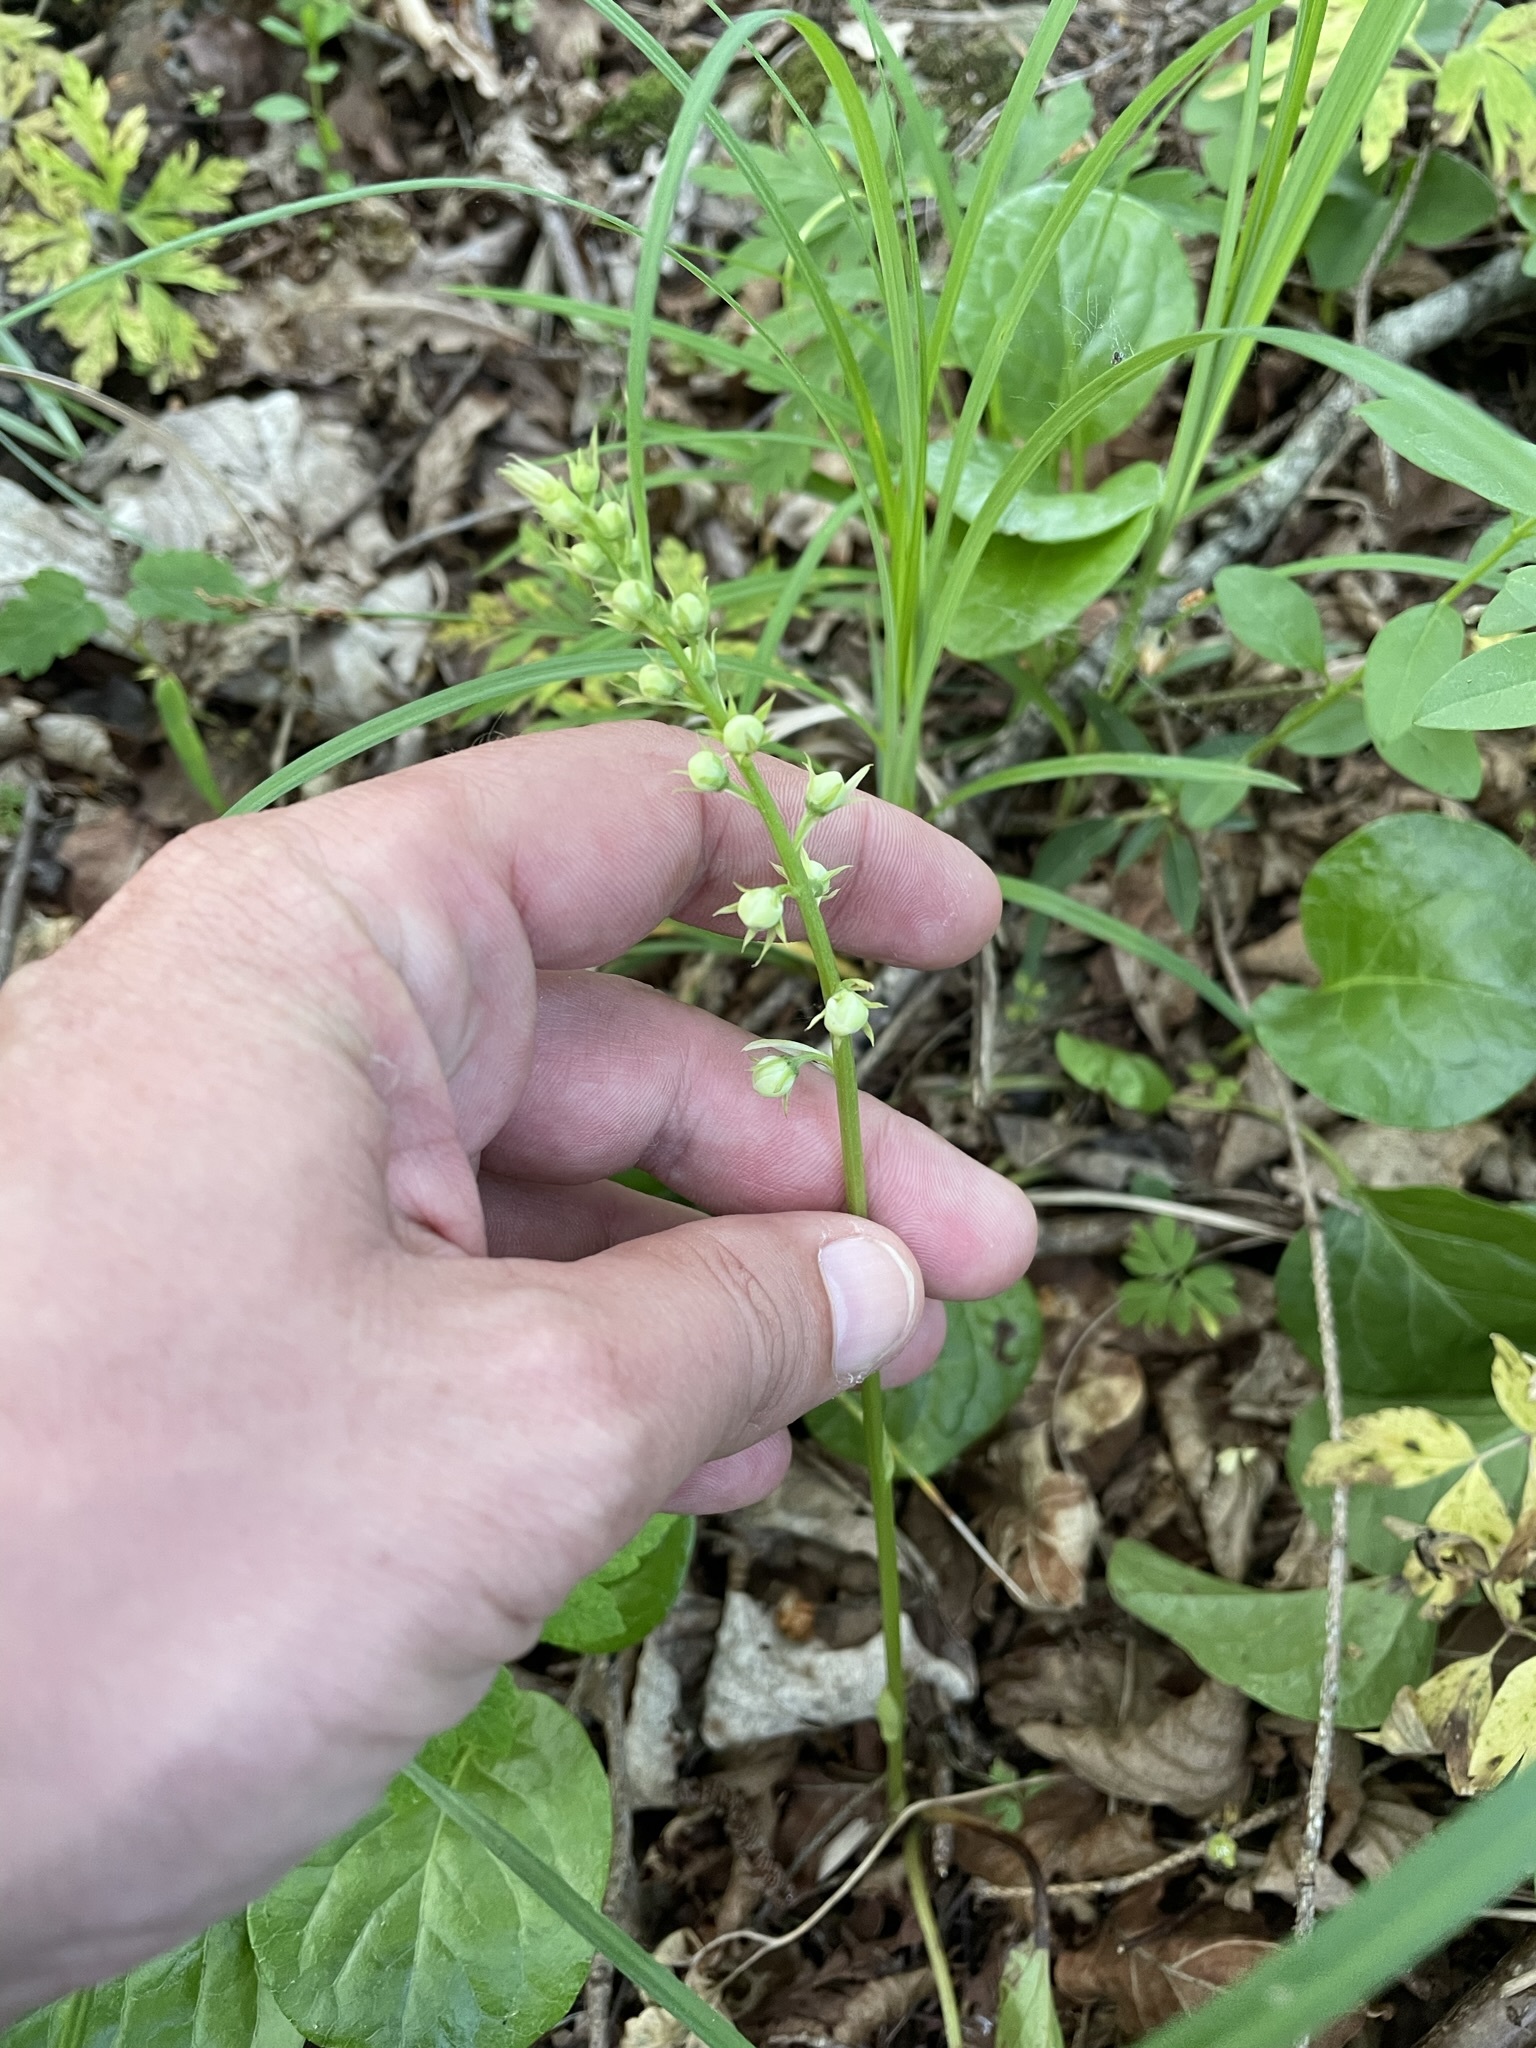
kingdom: Plantae
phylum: Tracheophyta
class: Magnoliopsida
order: Ericales
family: Ericaceae
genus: Pyrola
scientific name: Pyrola rotundifolia
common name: Round-leaved wintergreen
